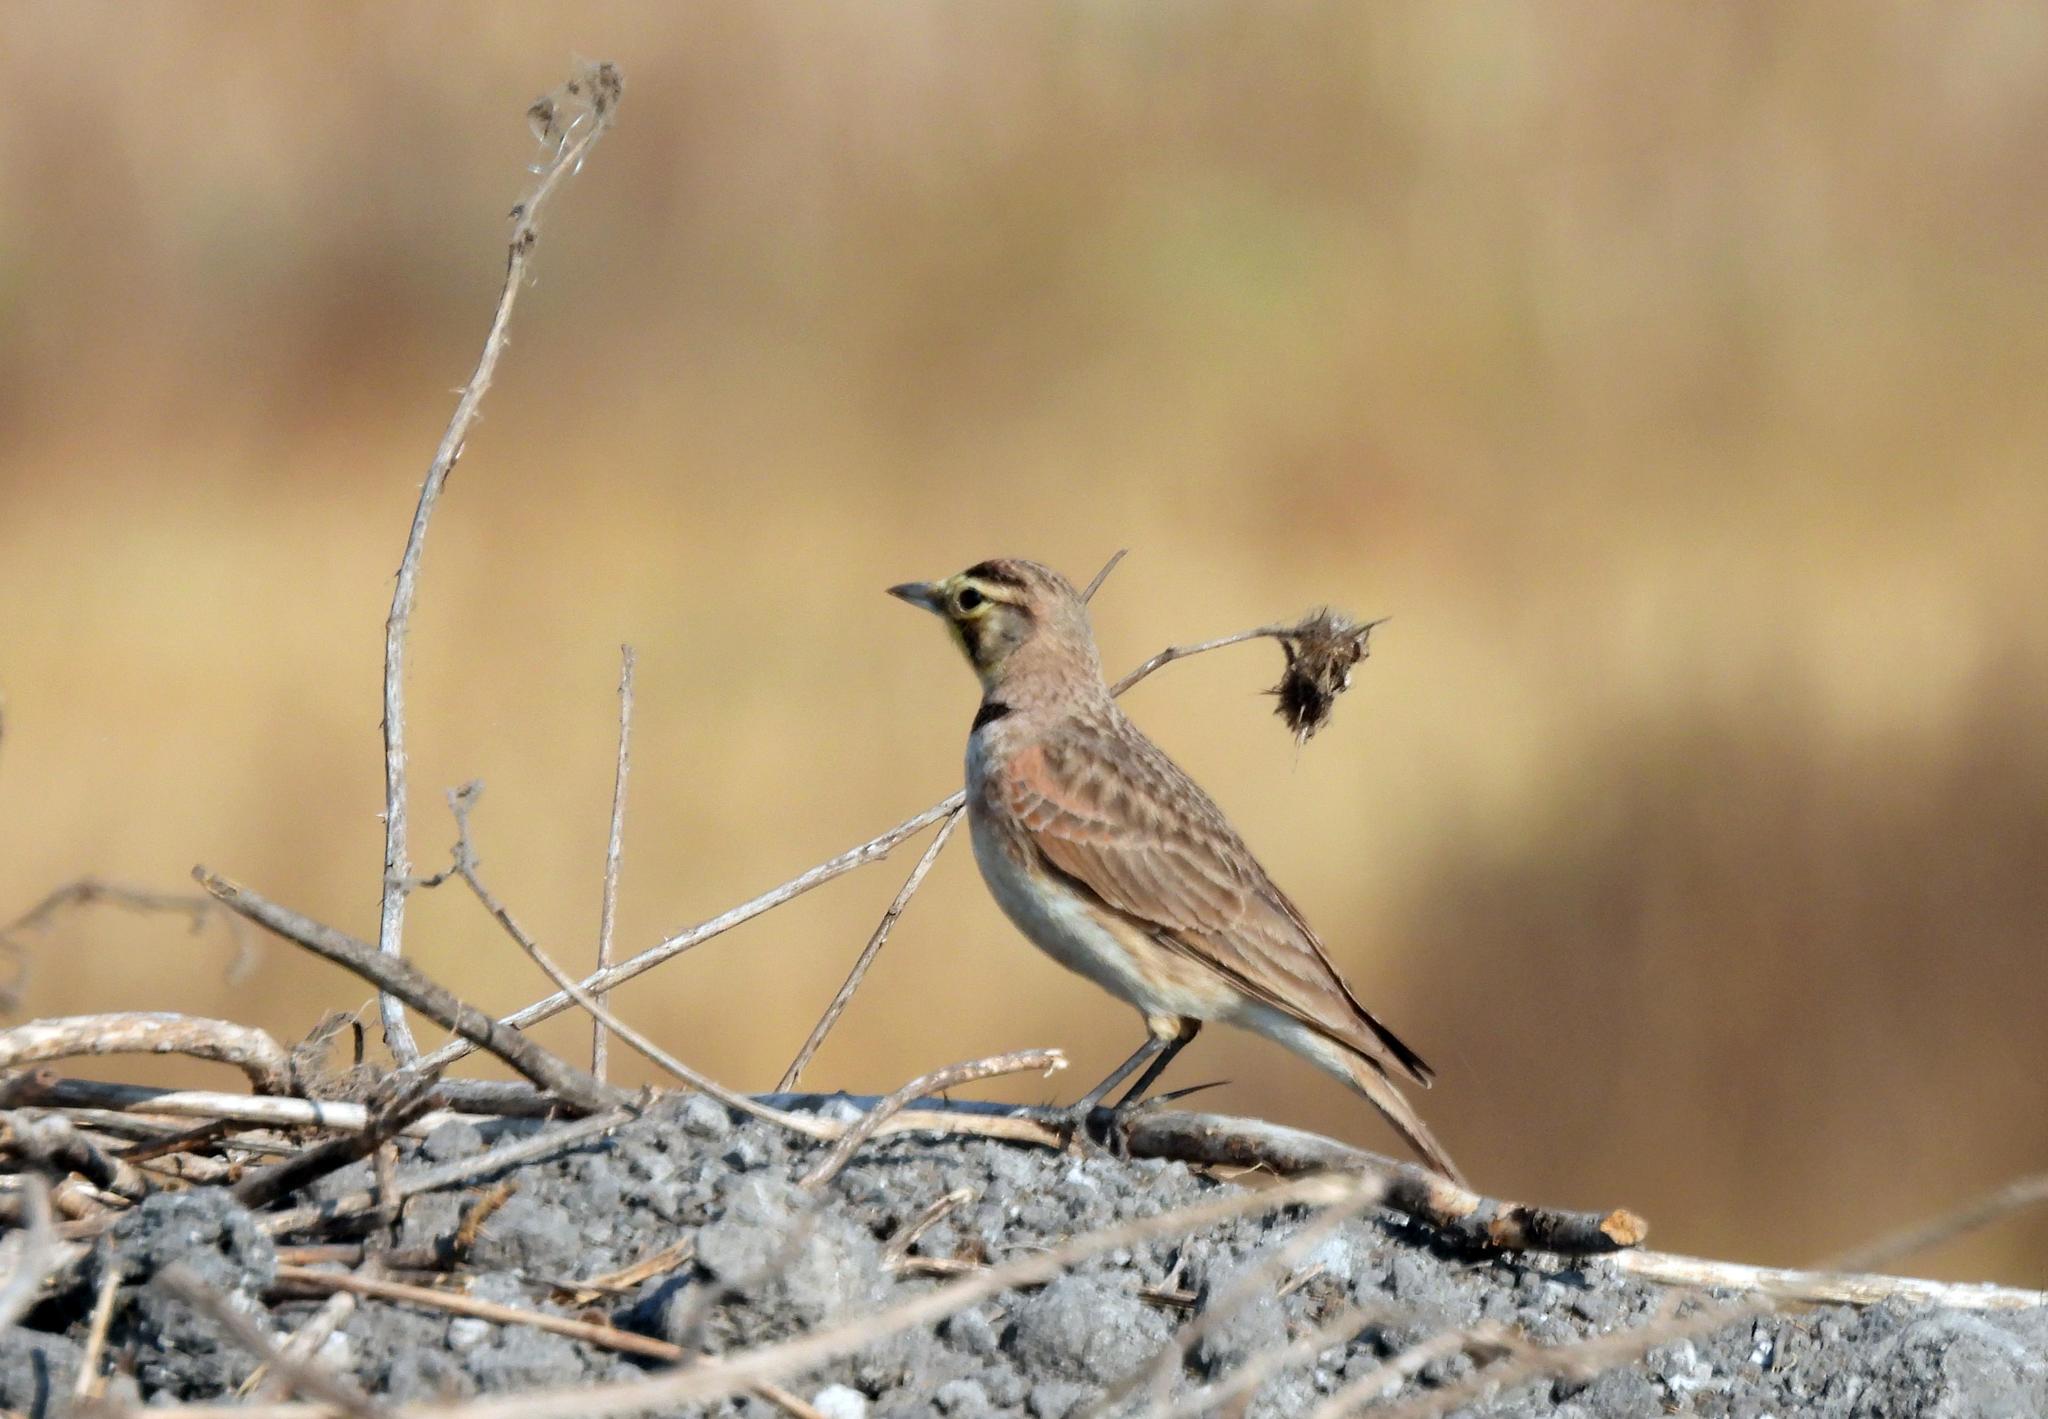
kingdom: Animalia
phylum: Chordata
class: Aves
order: Passeriformes
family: Alaudidae
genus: Eremophila
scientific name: Eremophila alpestris
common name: Horned lark
